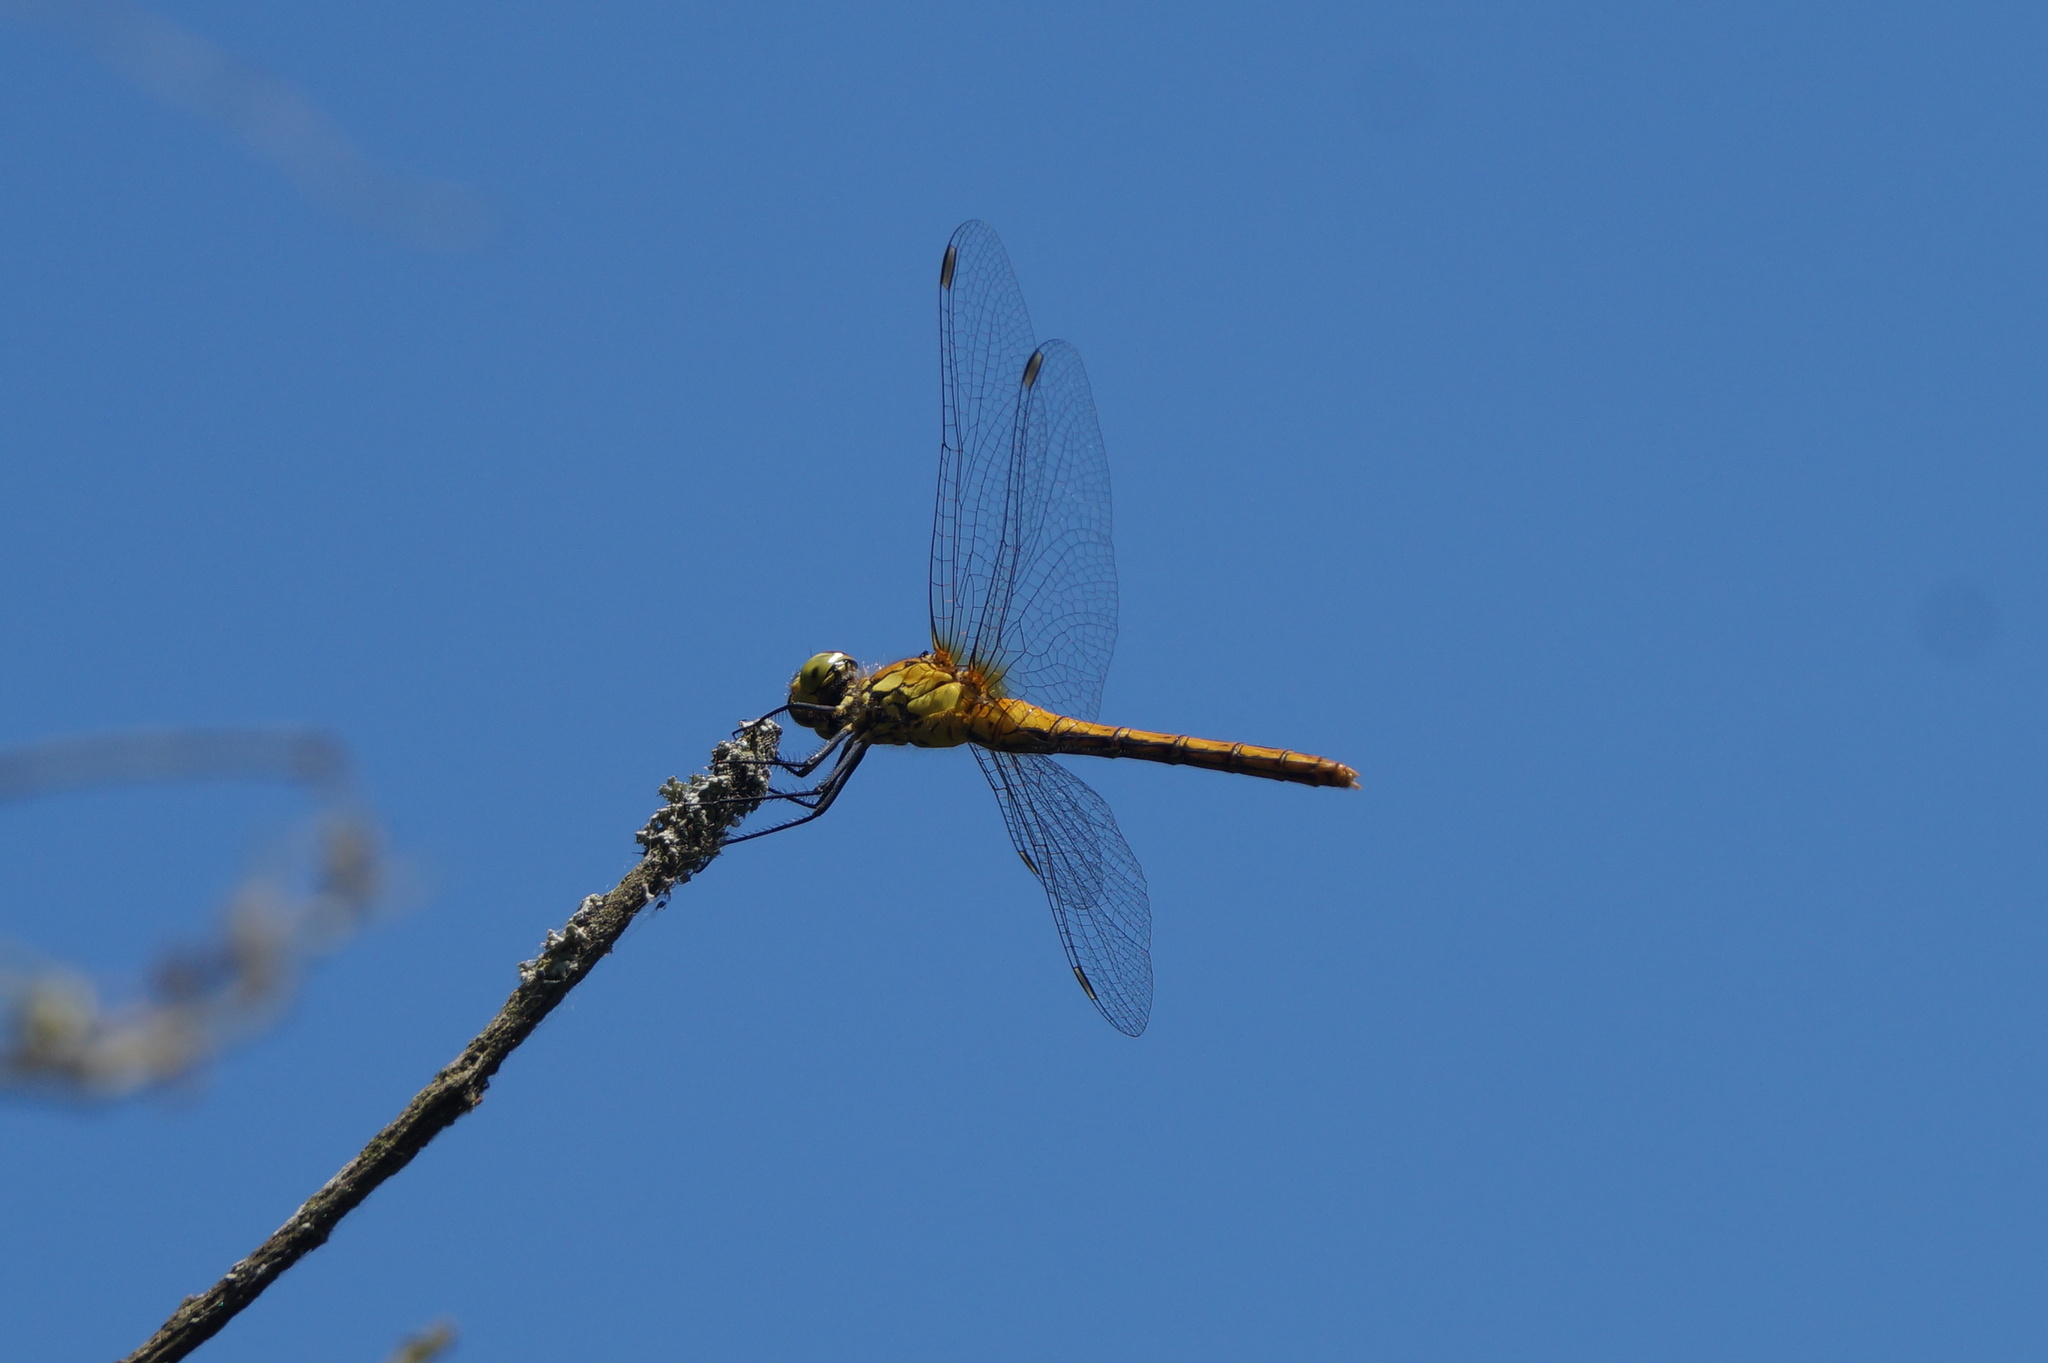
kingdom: Animalia
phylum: Arthropoda
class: Insecta
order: Odonata
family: Libellulidae
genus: Sympetrum
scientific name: Sympetrum sanguineum
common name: Ruddy darter
